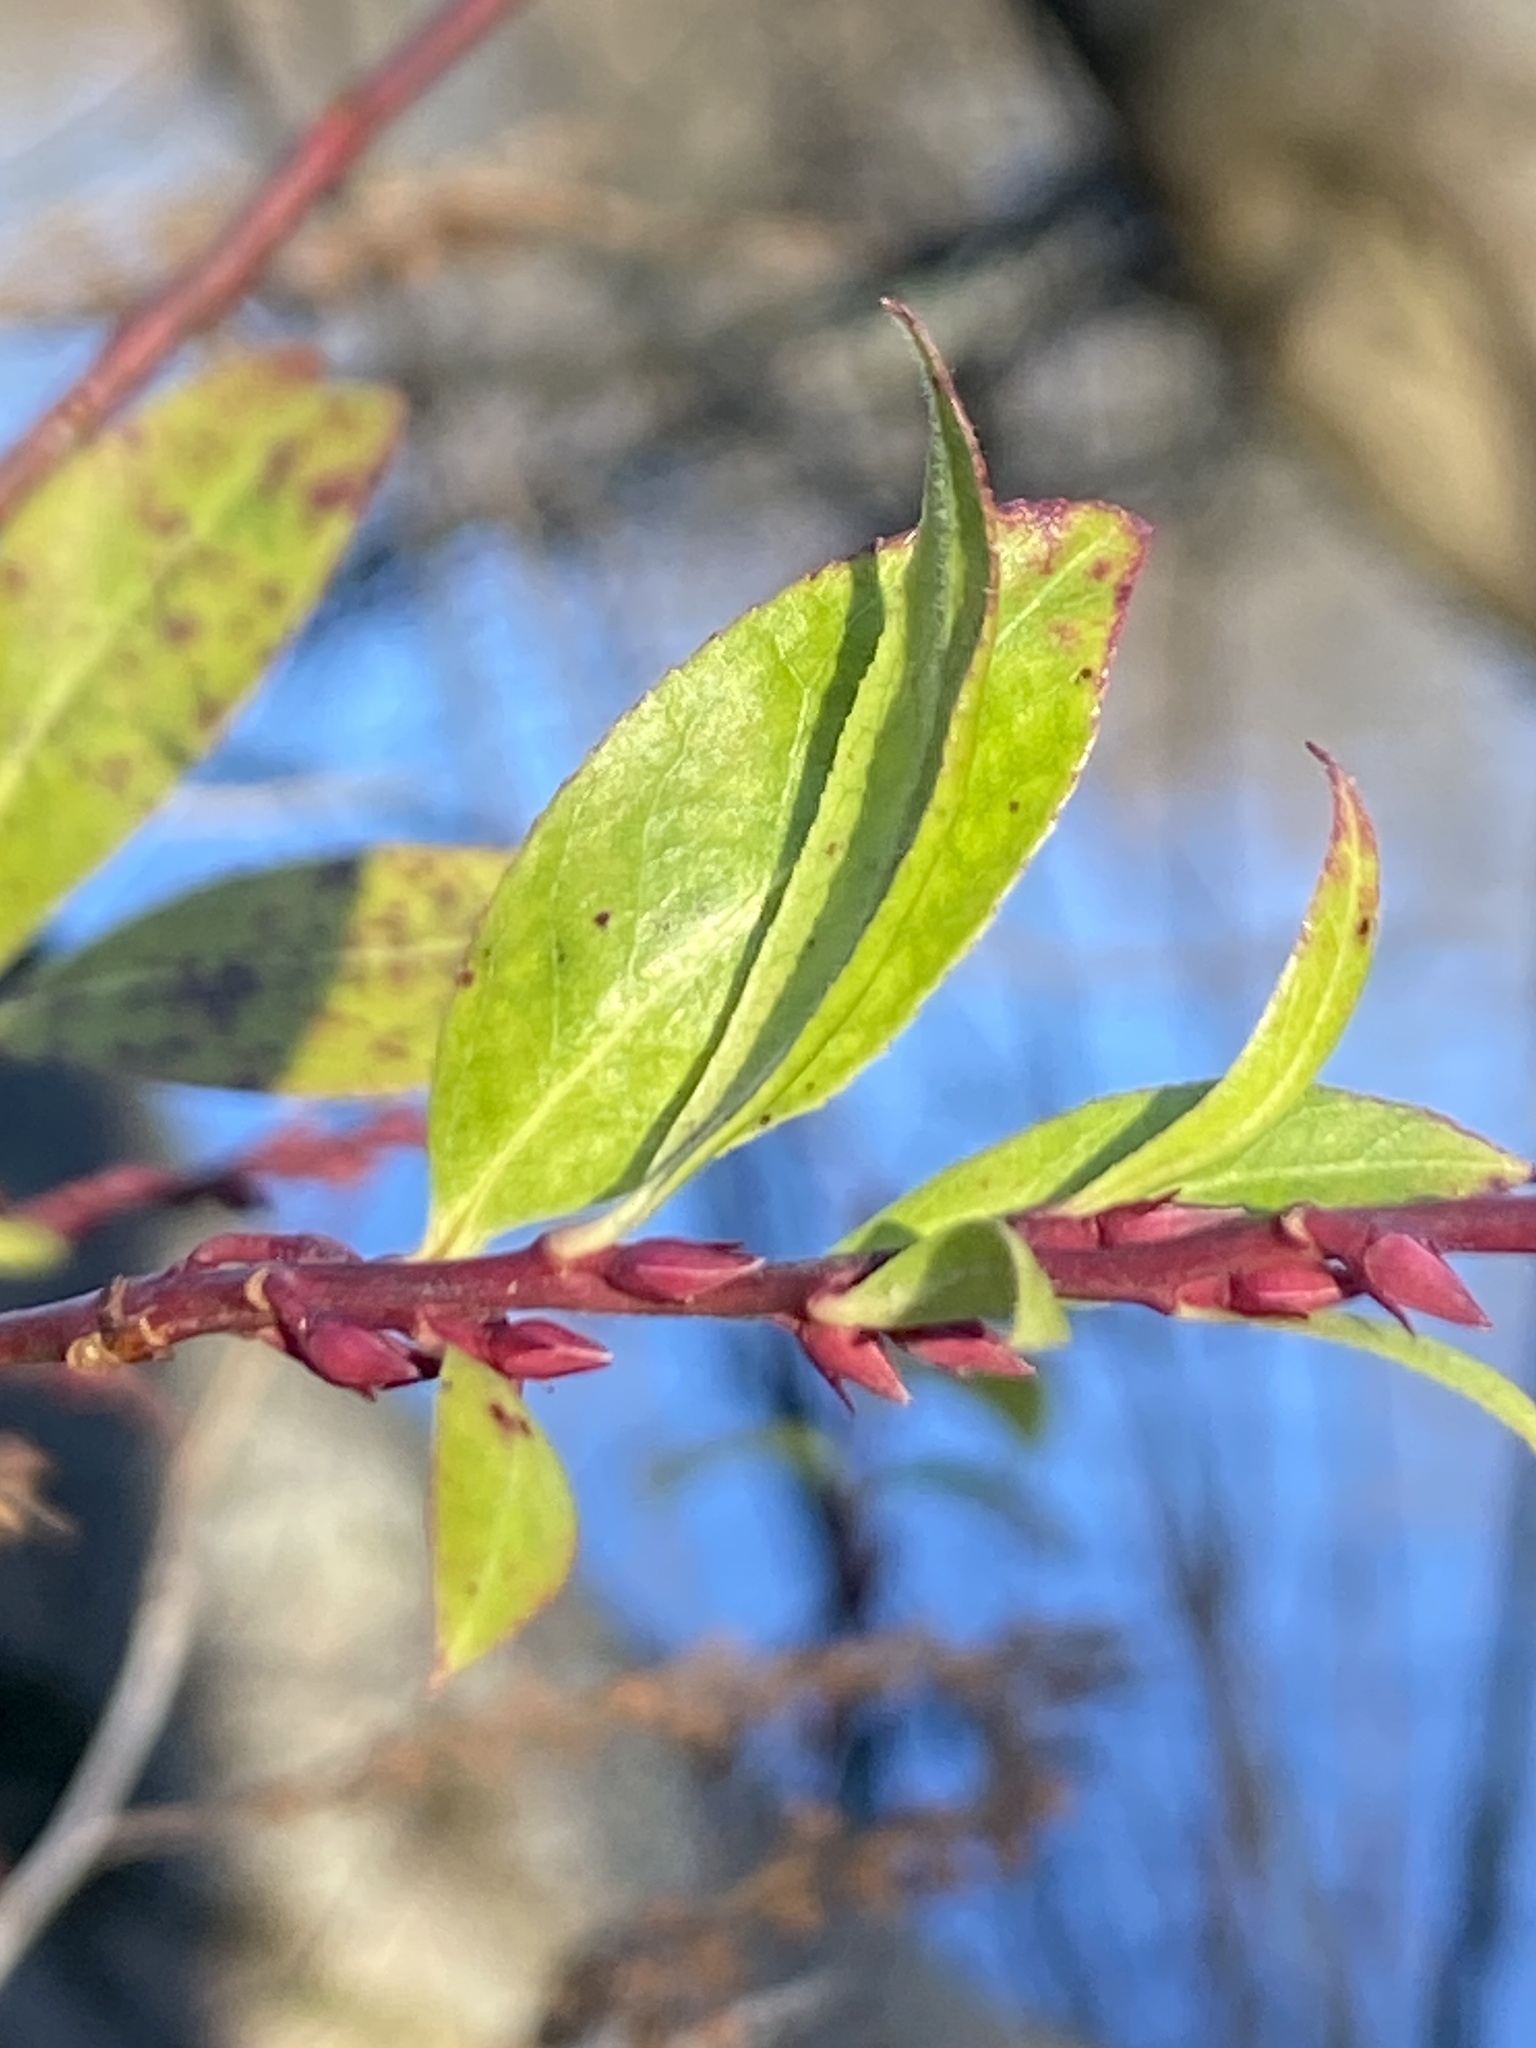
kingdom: Plantae
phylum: Tracheophyta
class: Magnoliopsida
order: Ericales
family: Ericaceae
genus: Eubotrys
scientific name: Eubotrys racemosa
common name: Fetterbush
